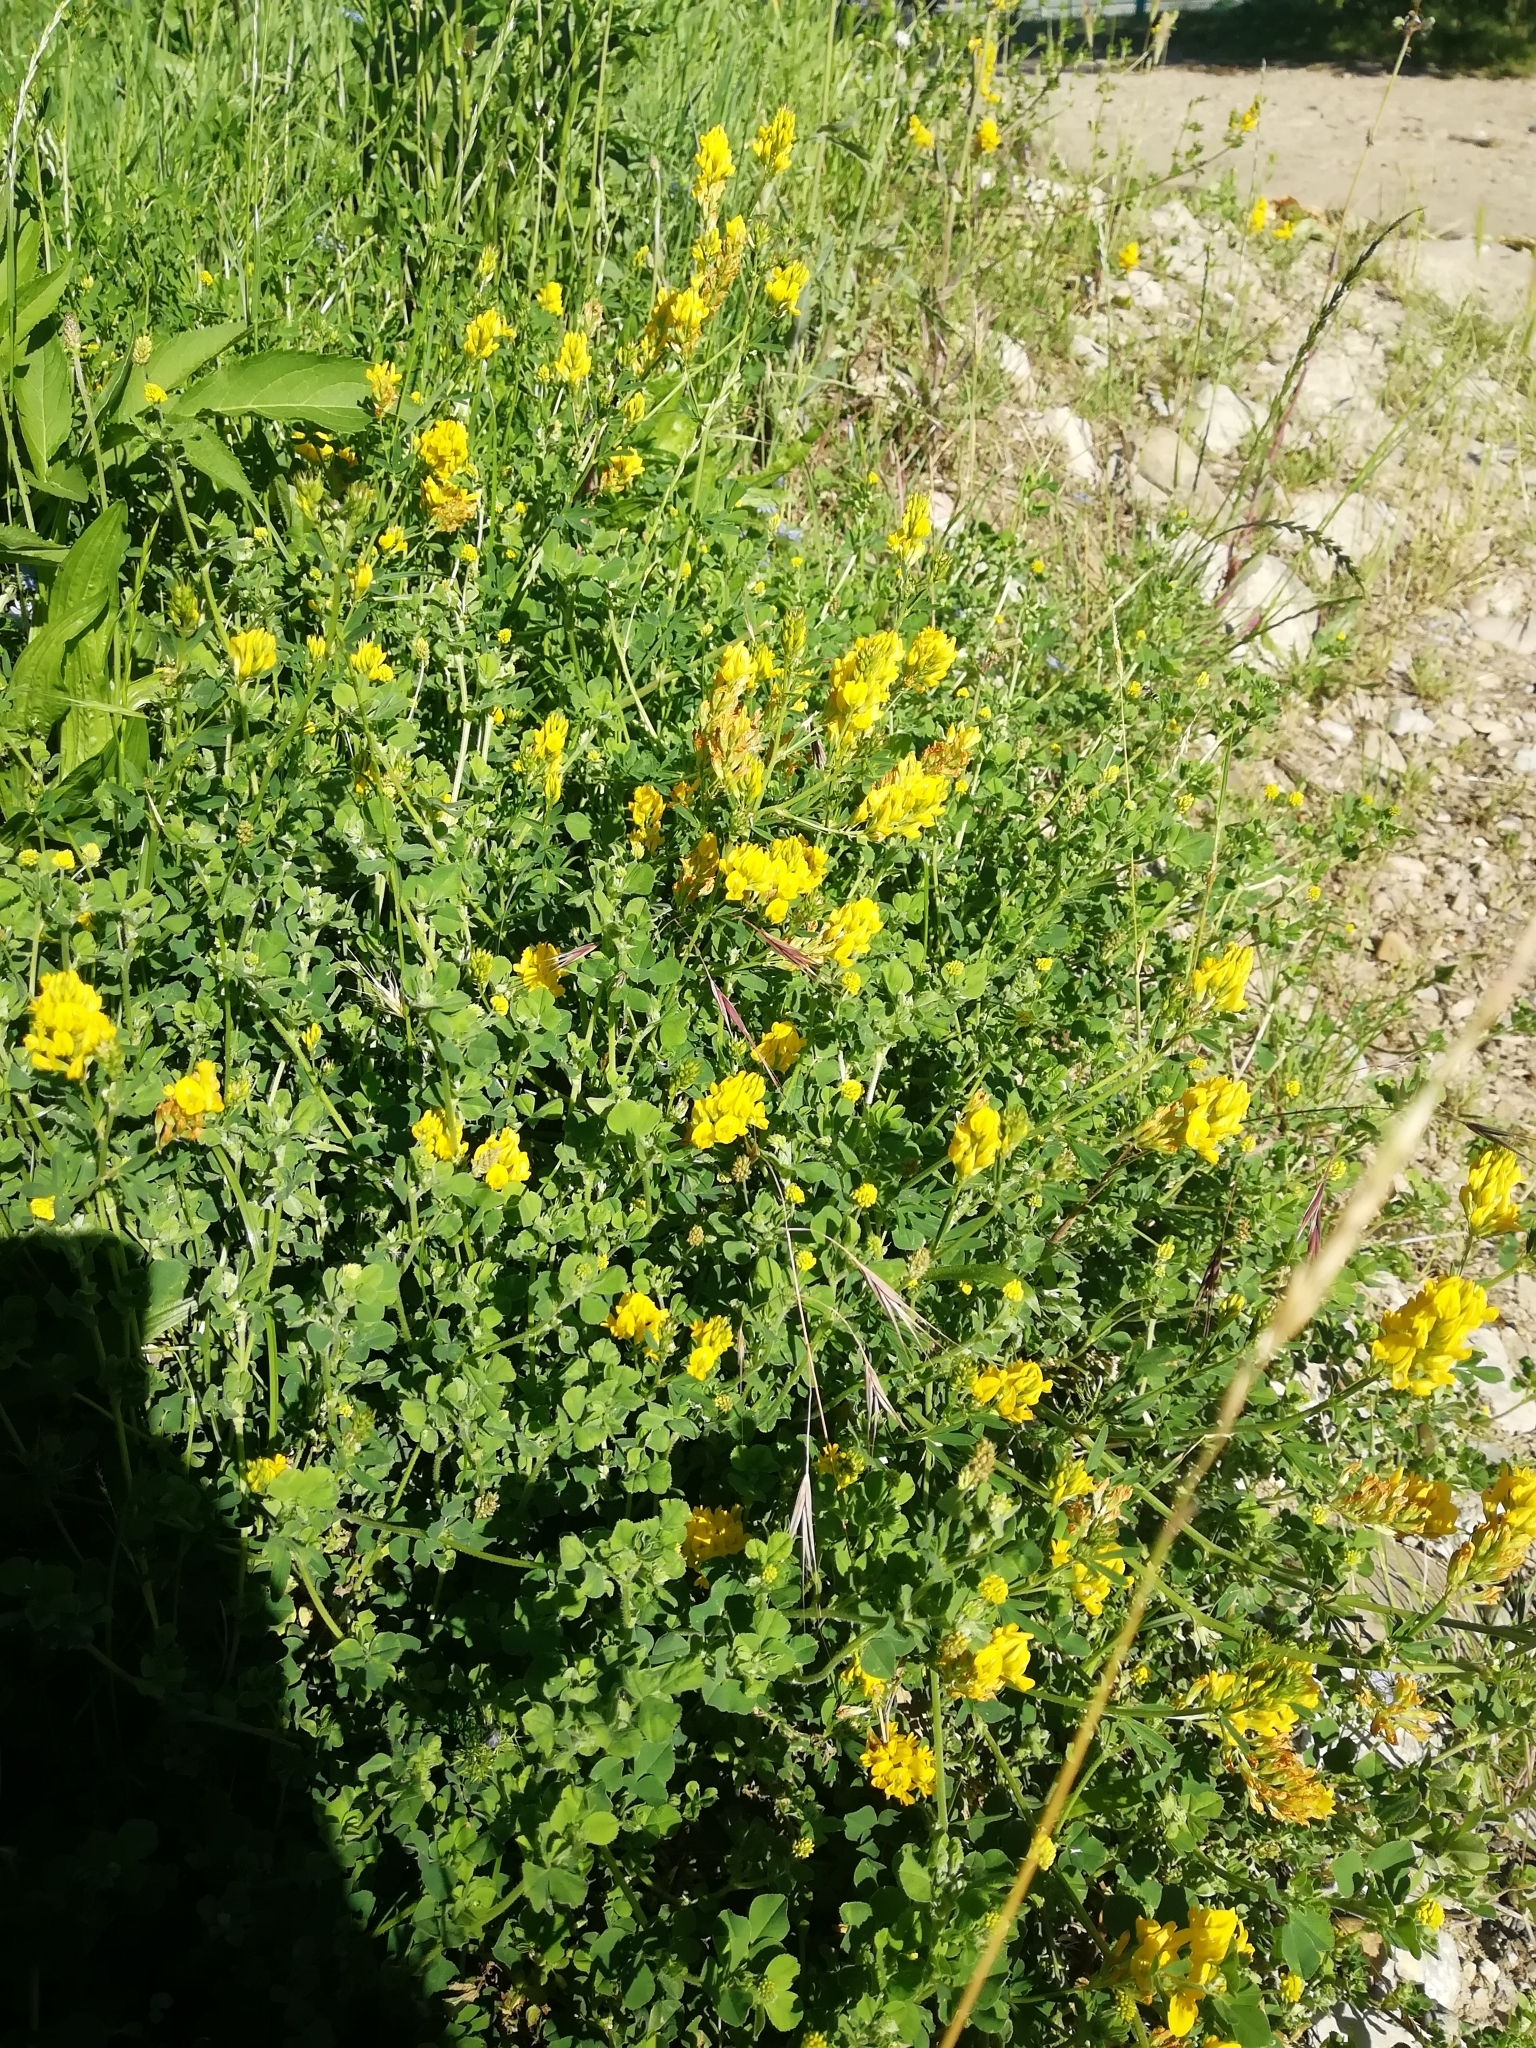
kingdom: Plantae
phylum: Tracheophyta
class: Magnoliopsida
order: Fabales
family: Fabaceae
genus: Medicago
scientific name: Medicago falcata
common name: Sickle medick
